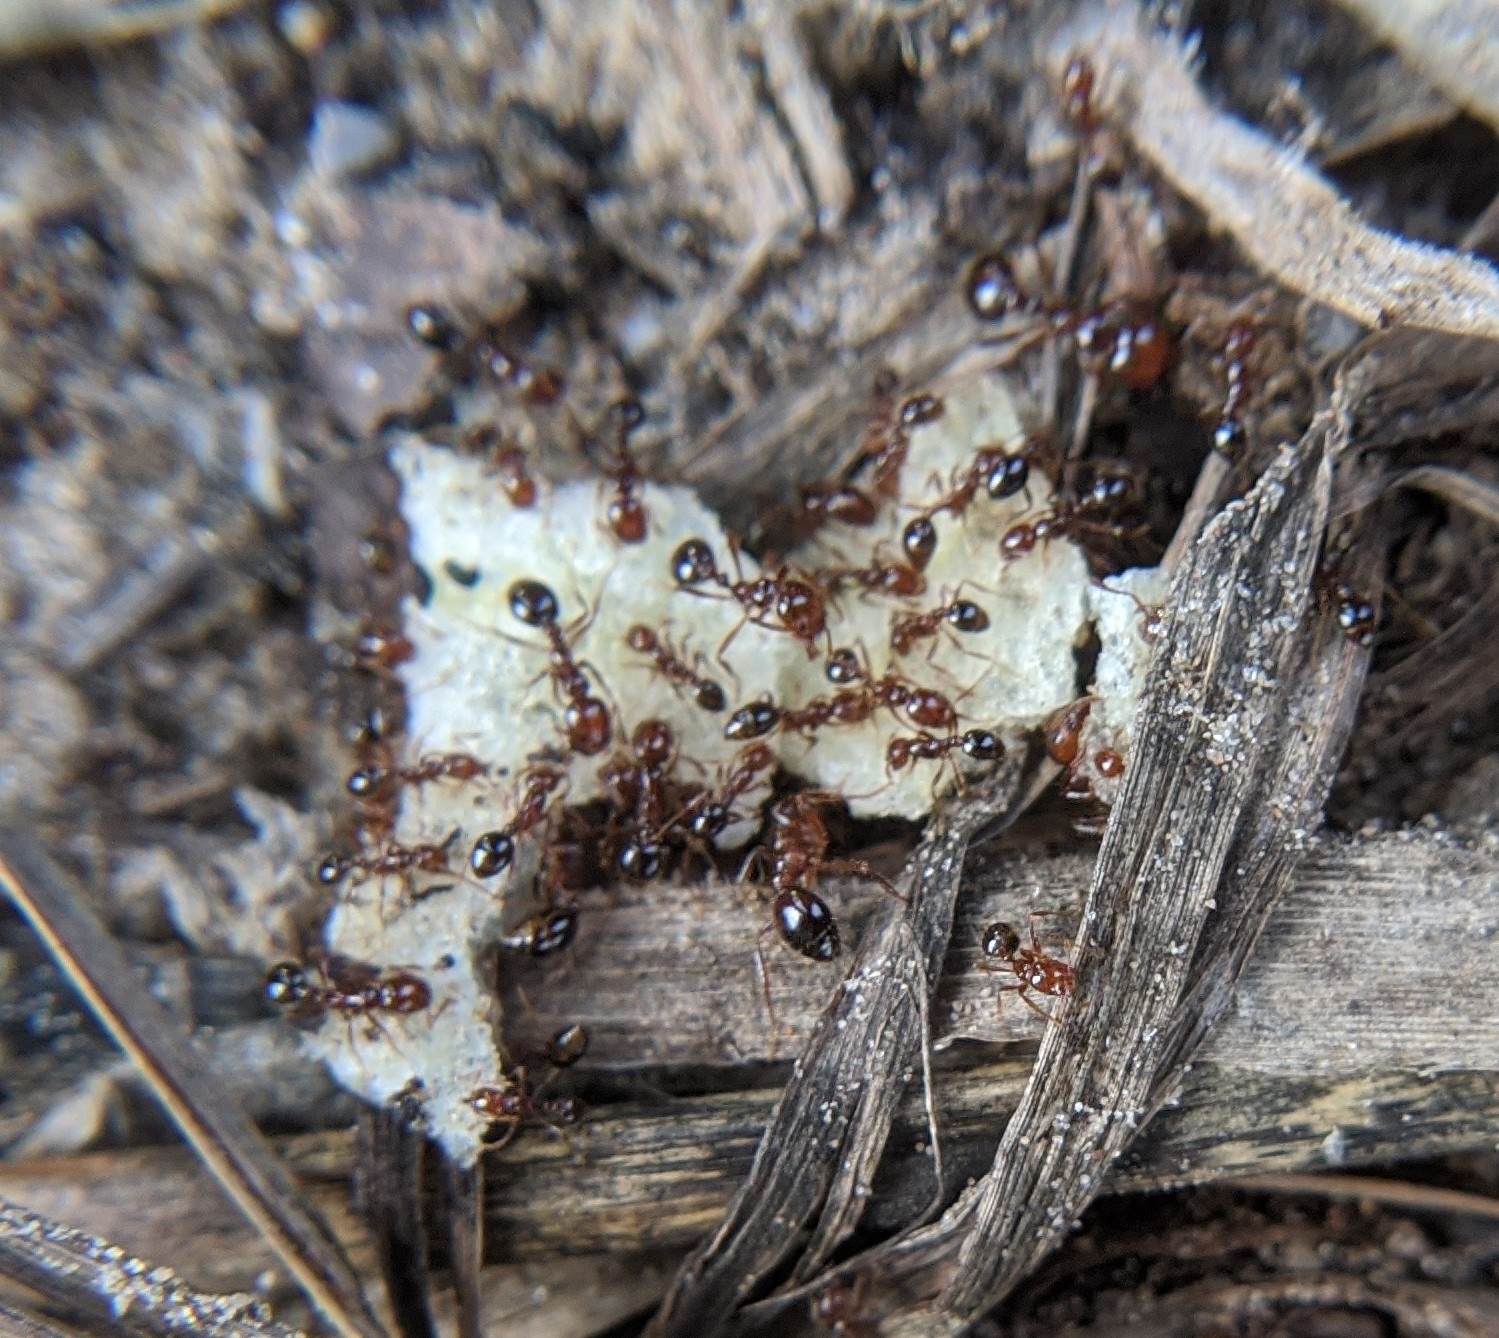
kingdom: Animalia
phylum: Arthropoda
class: Insecta
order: Hymenoptera
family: Formicidae
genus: Solenopsis
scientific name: Solenopsis invicta
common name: Red imported fire ant
